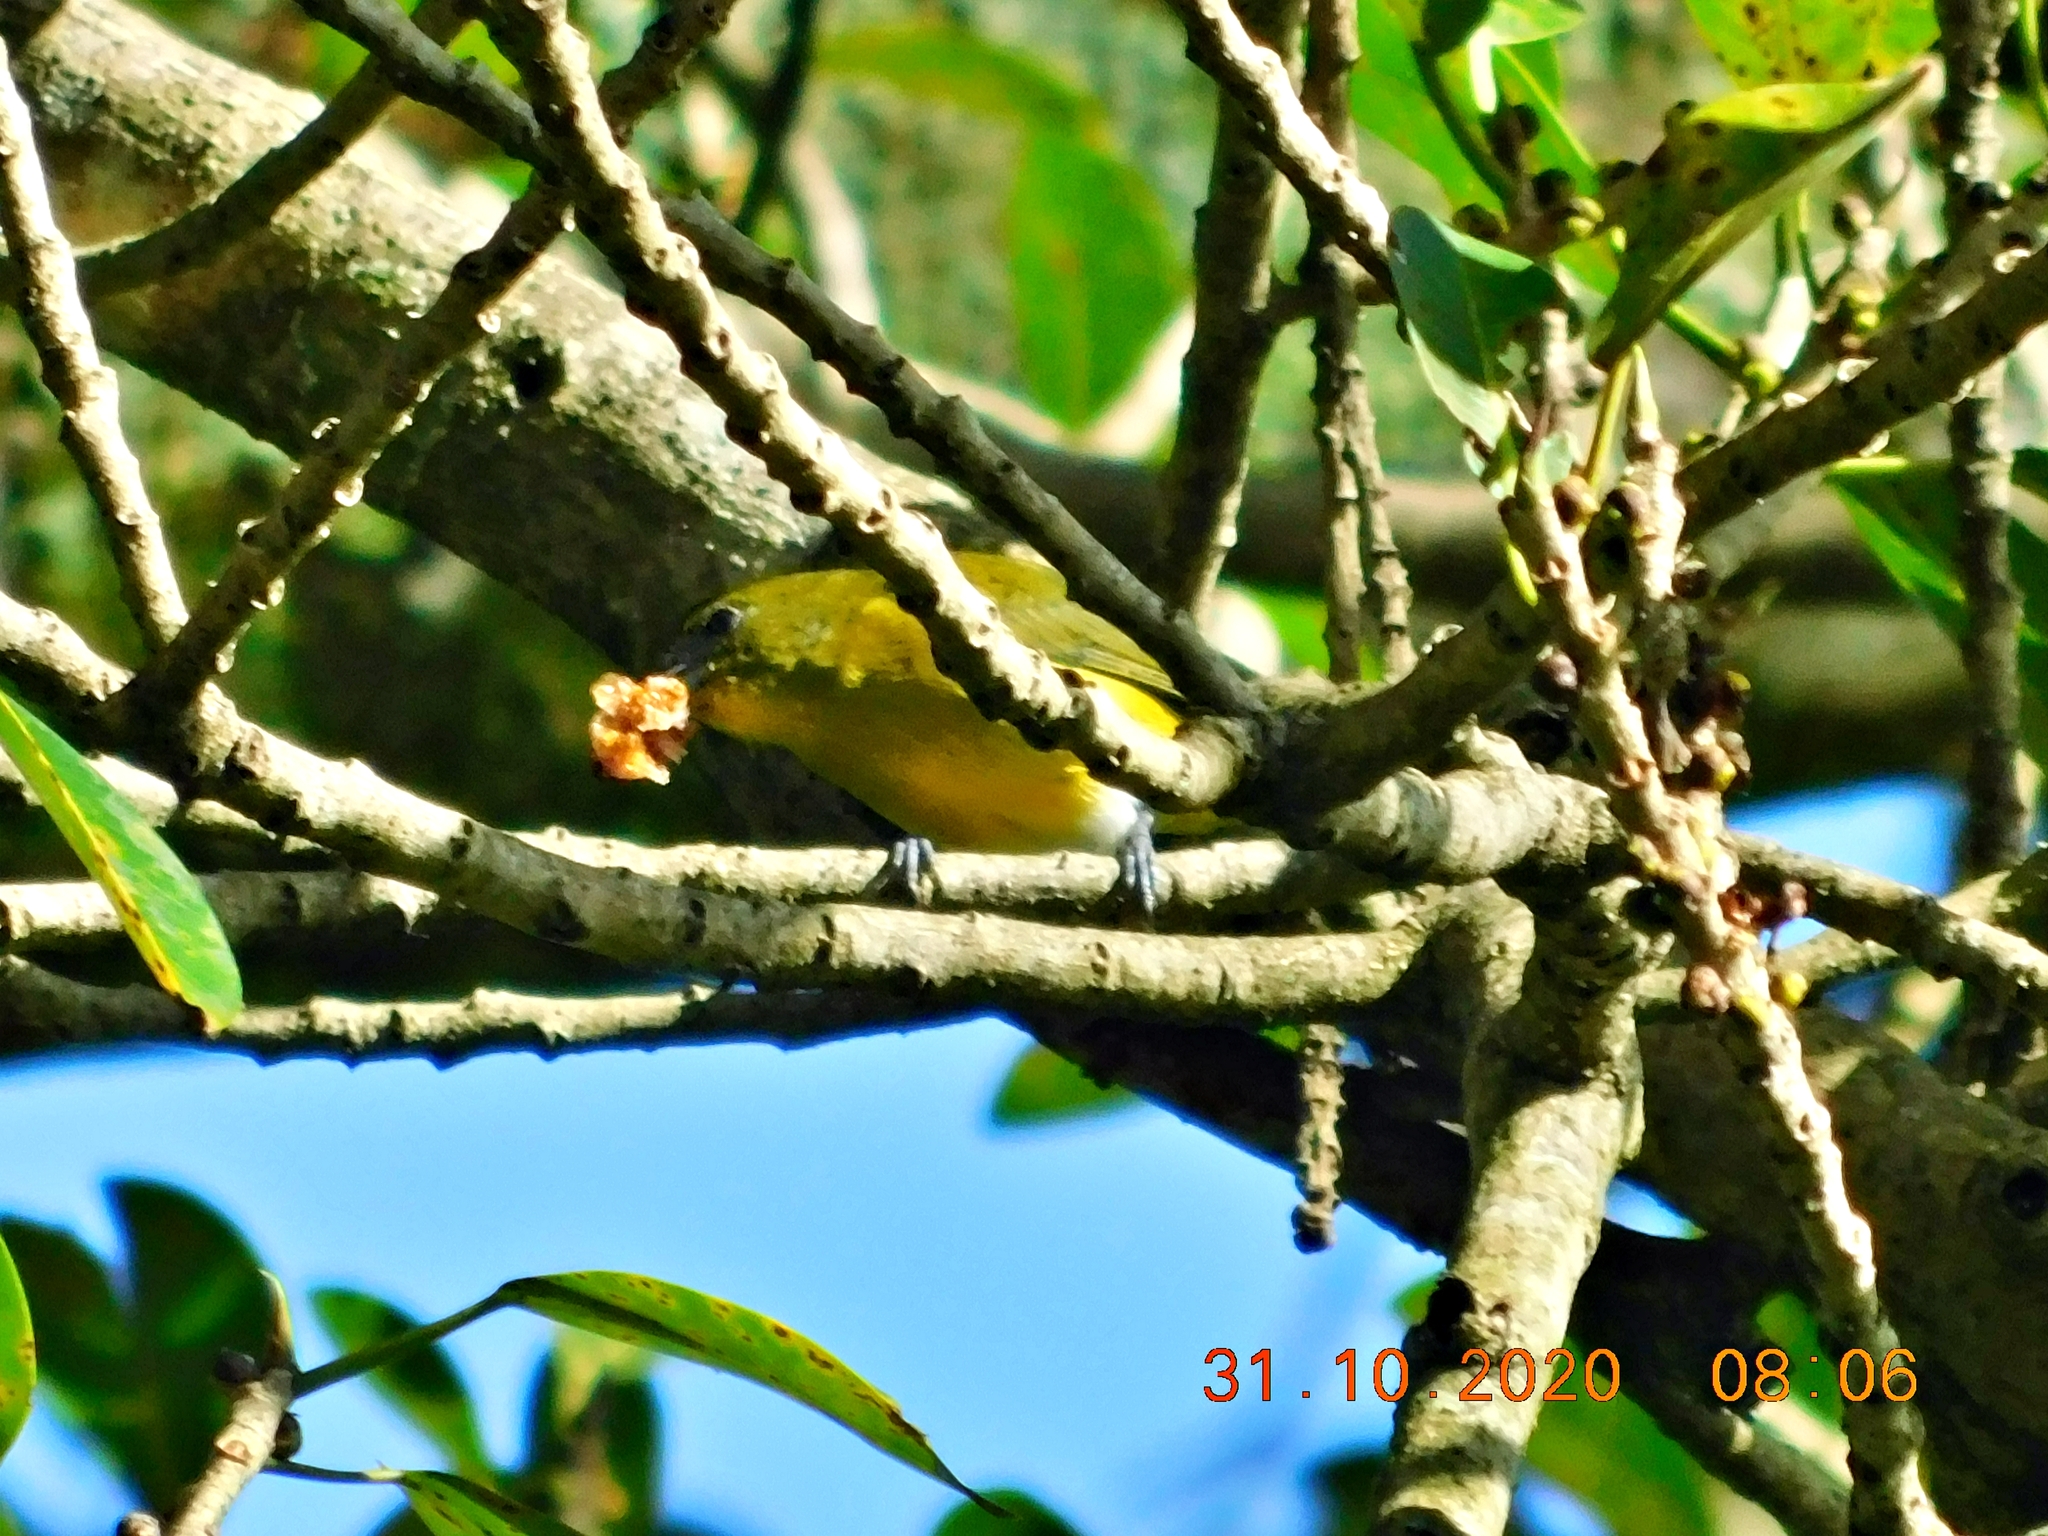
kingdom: Animalia
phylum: Chordata
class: Aves
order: Passeriformes
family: Fringillidae
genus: Euphonia
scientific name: Euphonia hirundinacea
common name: Yellow-throated euphonia
